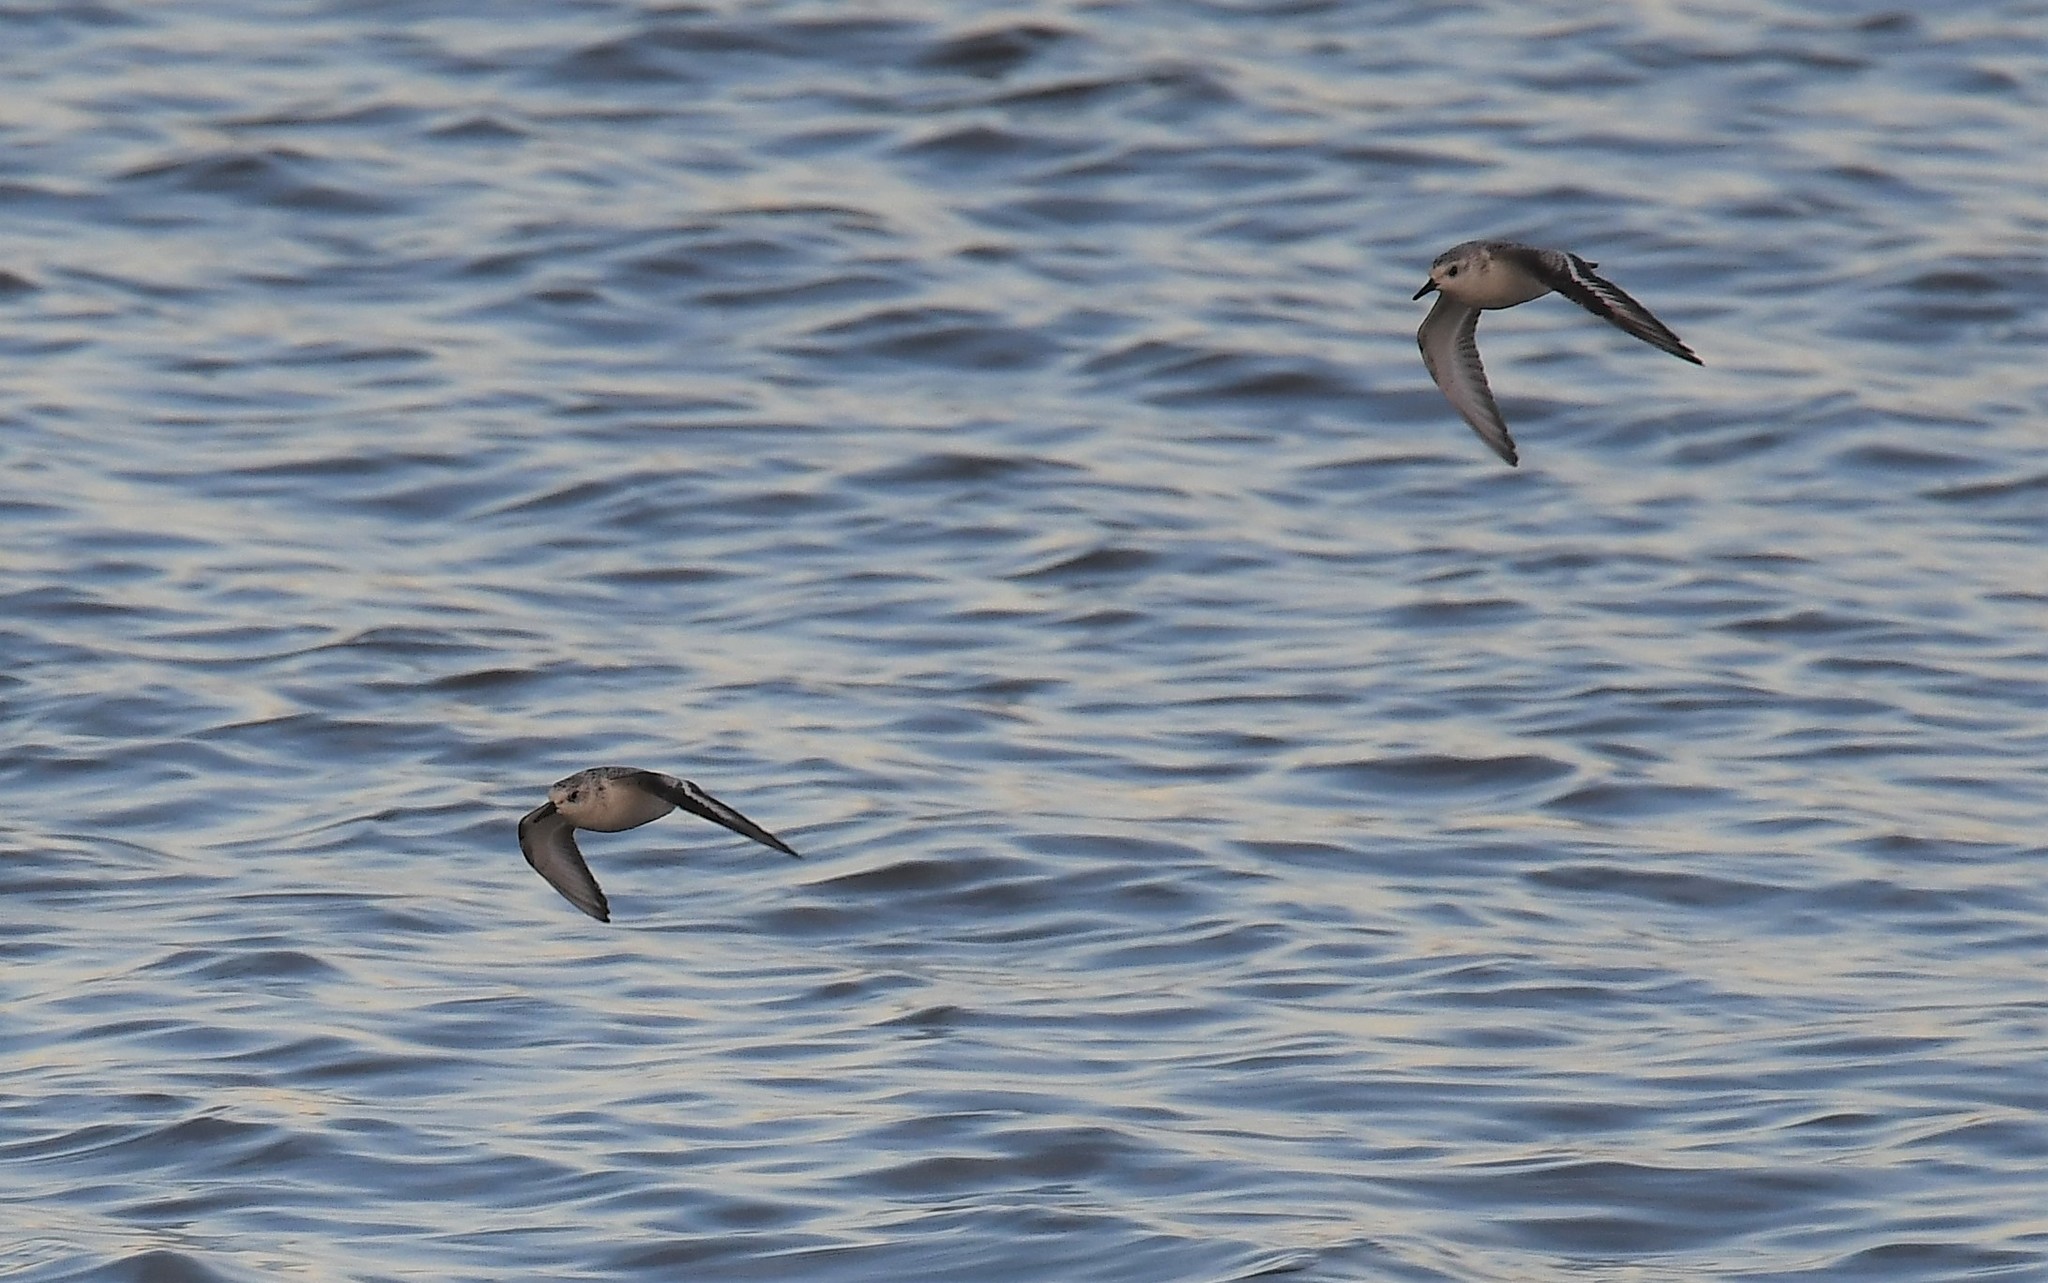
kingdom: Animalia
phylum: Chordata
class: Aves
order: Charadriiformes
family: Scolopacidae
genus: Calidris
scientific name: Calidris alba
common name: Sanderling
